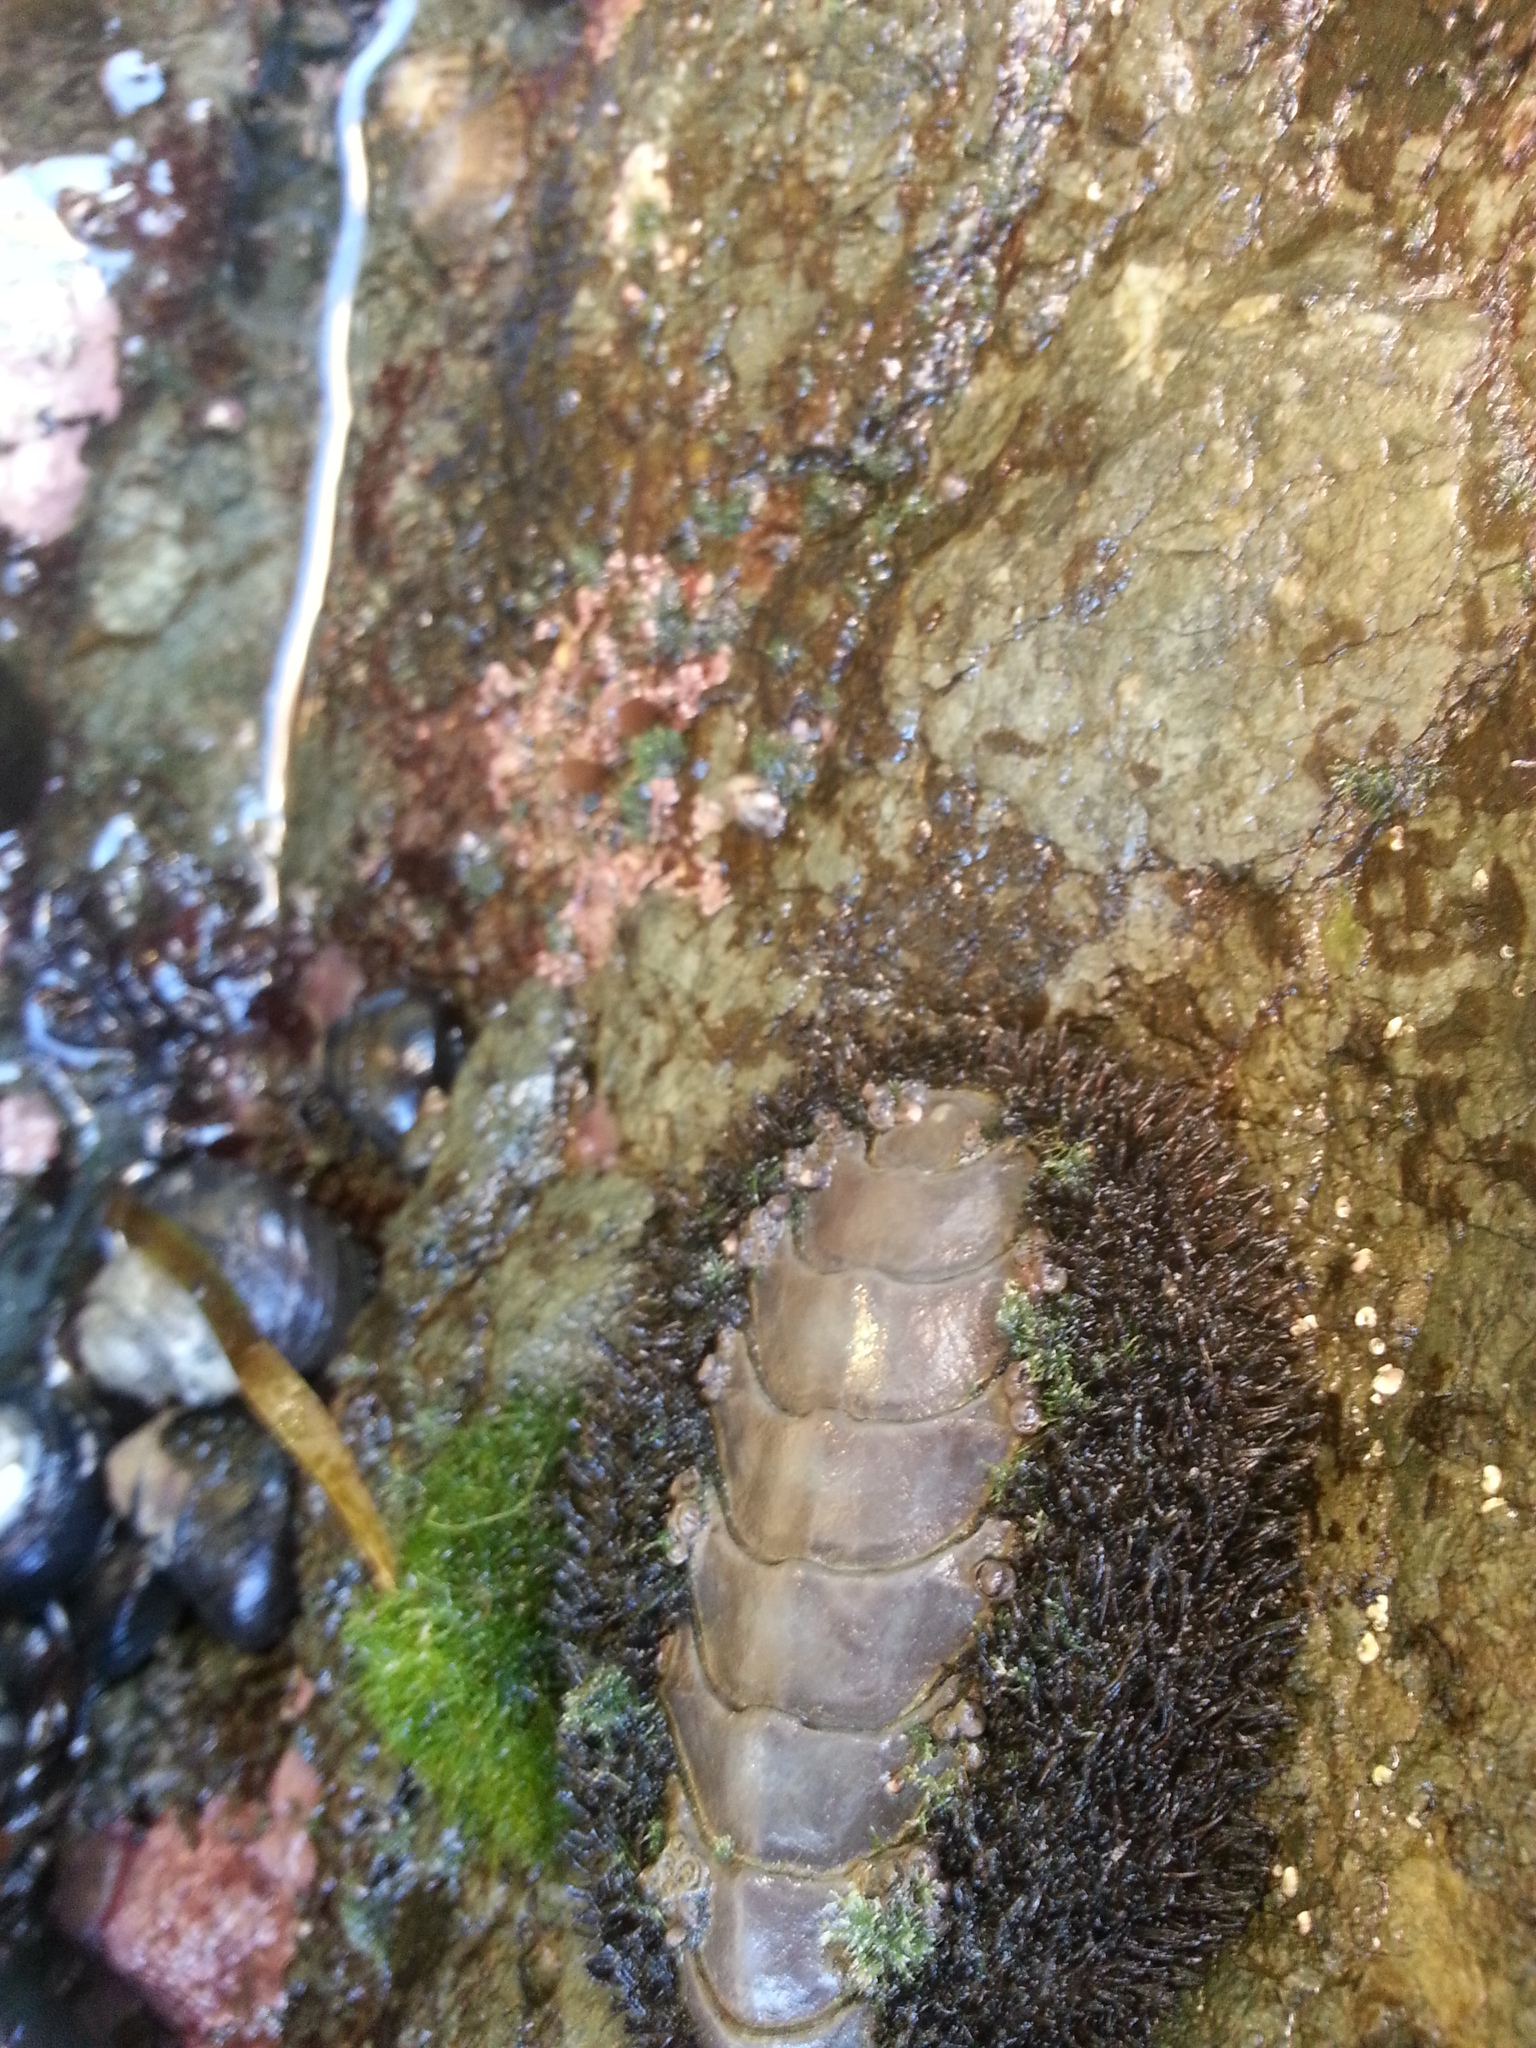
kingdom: Animalia
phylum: Mollusca
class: Polyplacophora
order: Chitonida
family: Mopaliidae
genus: Mopalia
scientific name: Mopalia muscosa
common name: Mossy chiton
